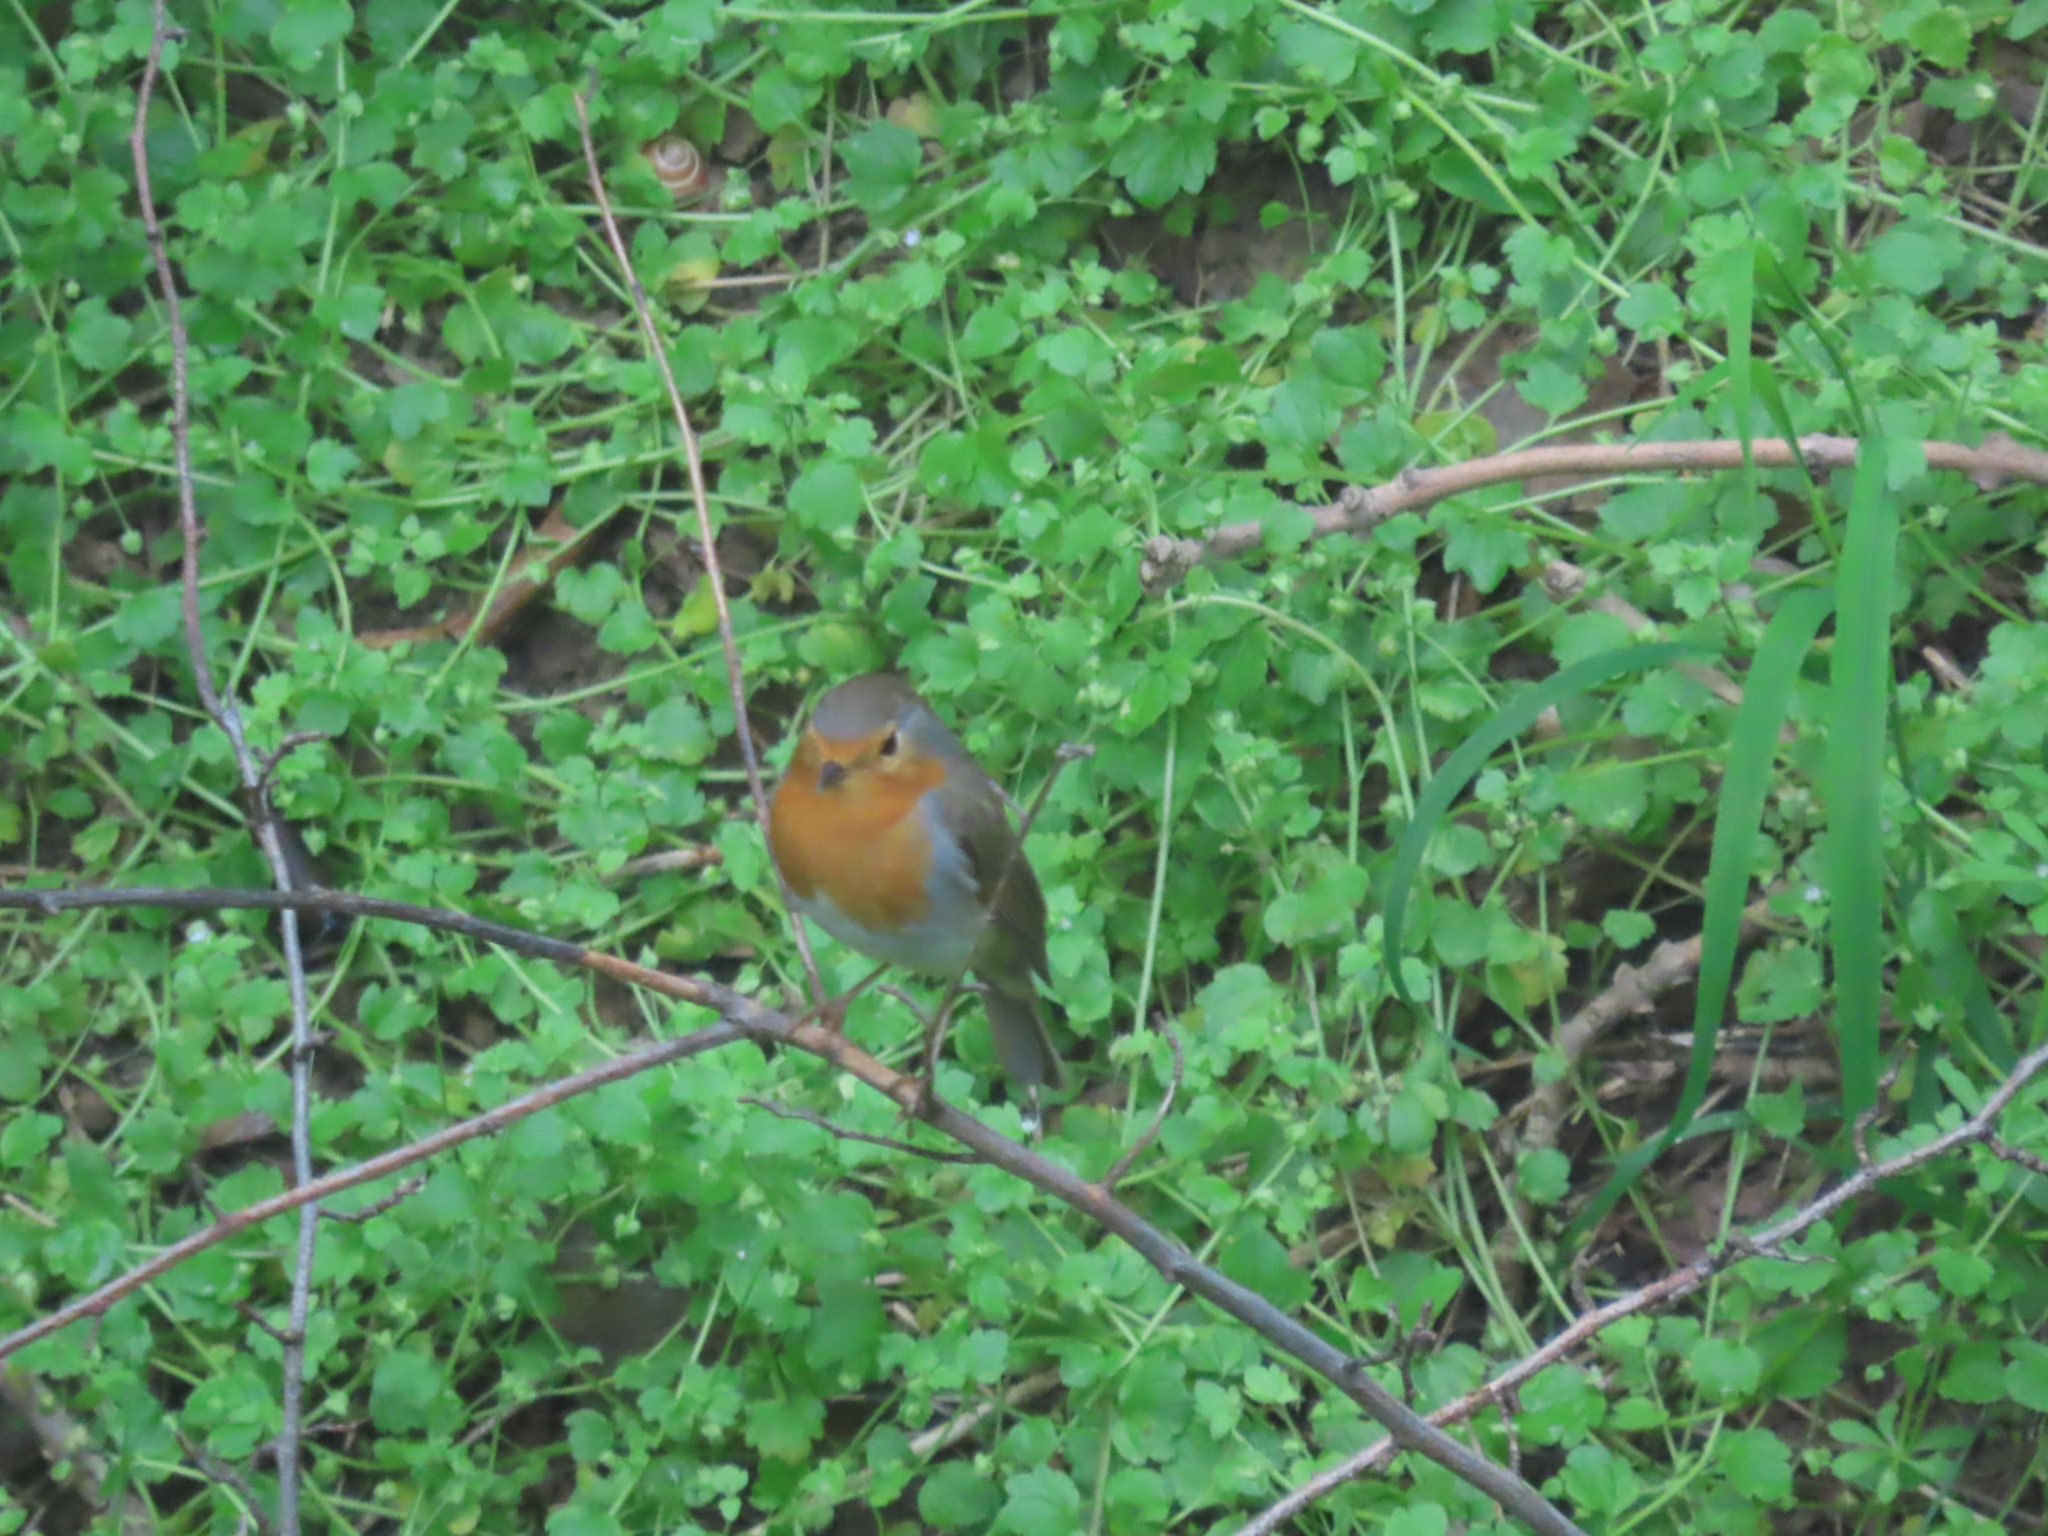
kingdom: Animalia
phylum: Chordata
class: Aves
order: Passeriformes
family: Muscicapidae
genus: Erithacus
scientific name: Erithacus rubecula
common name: European robin
